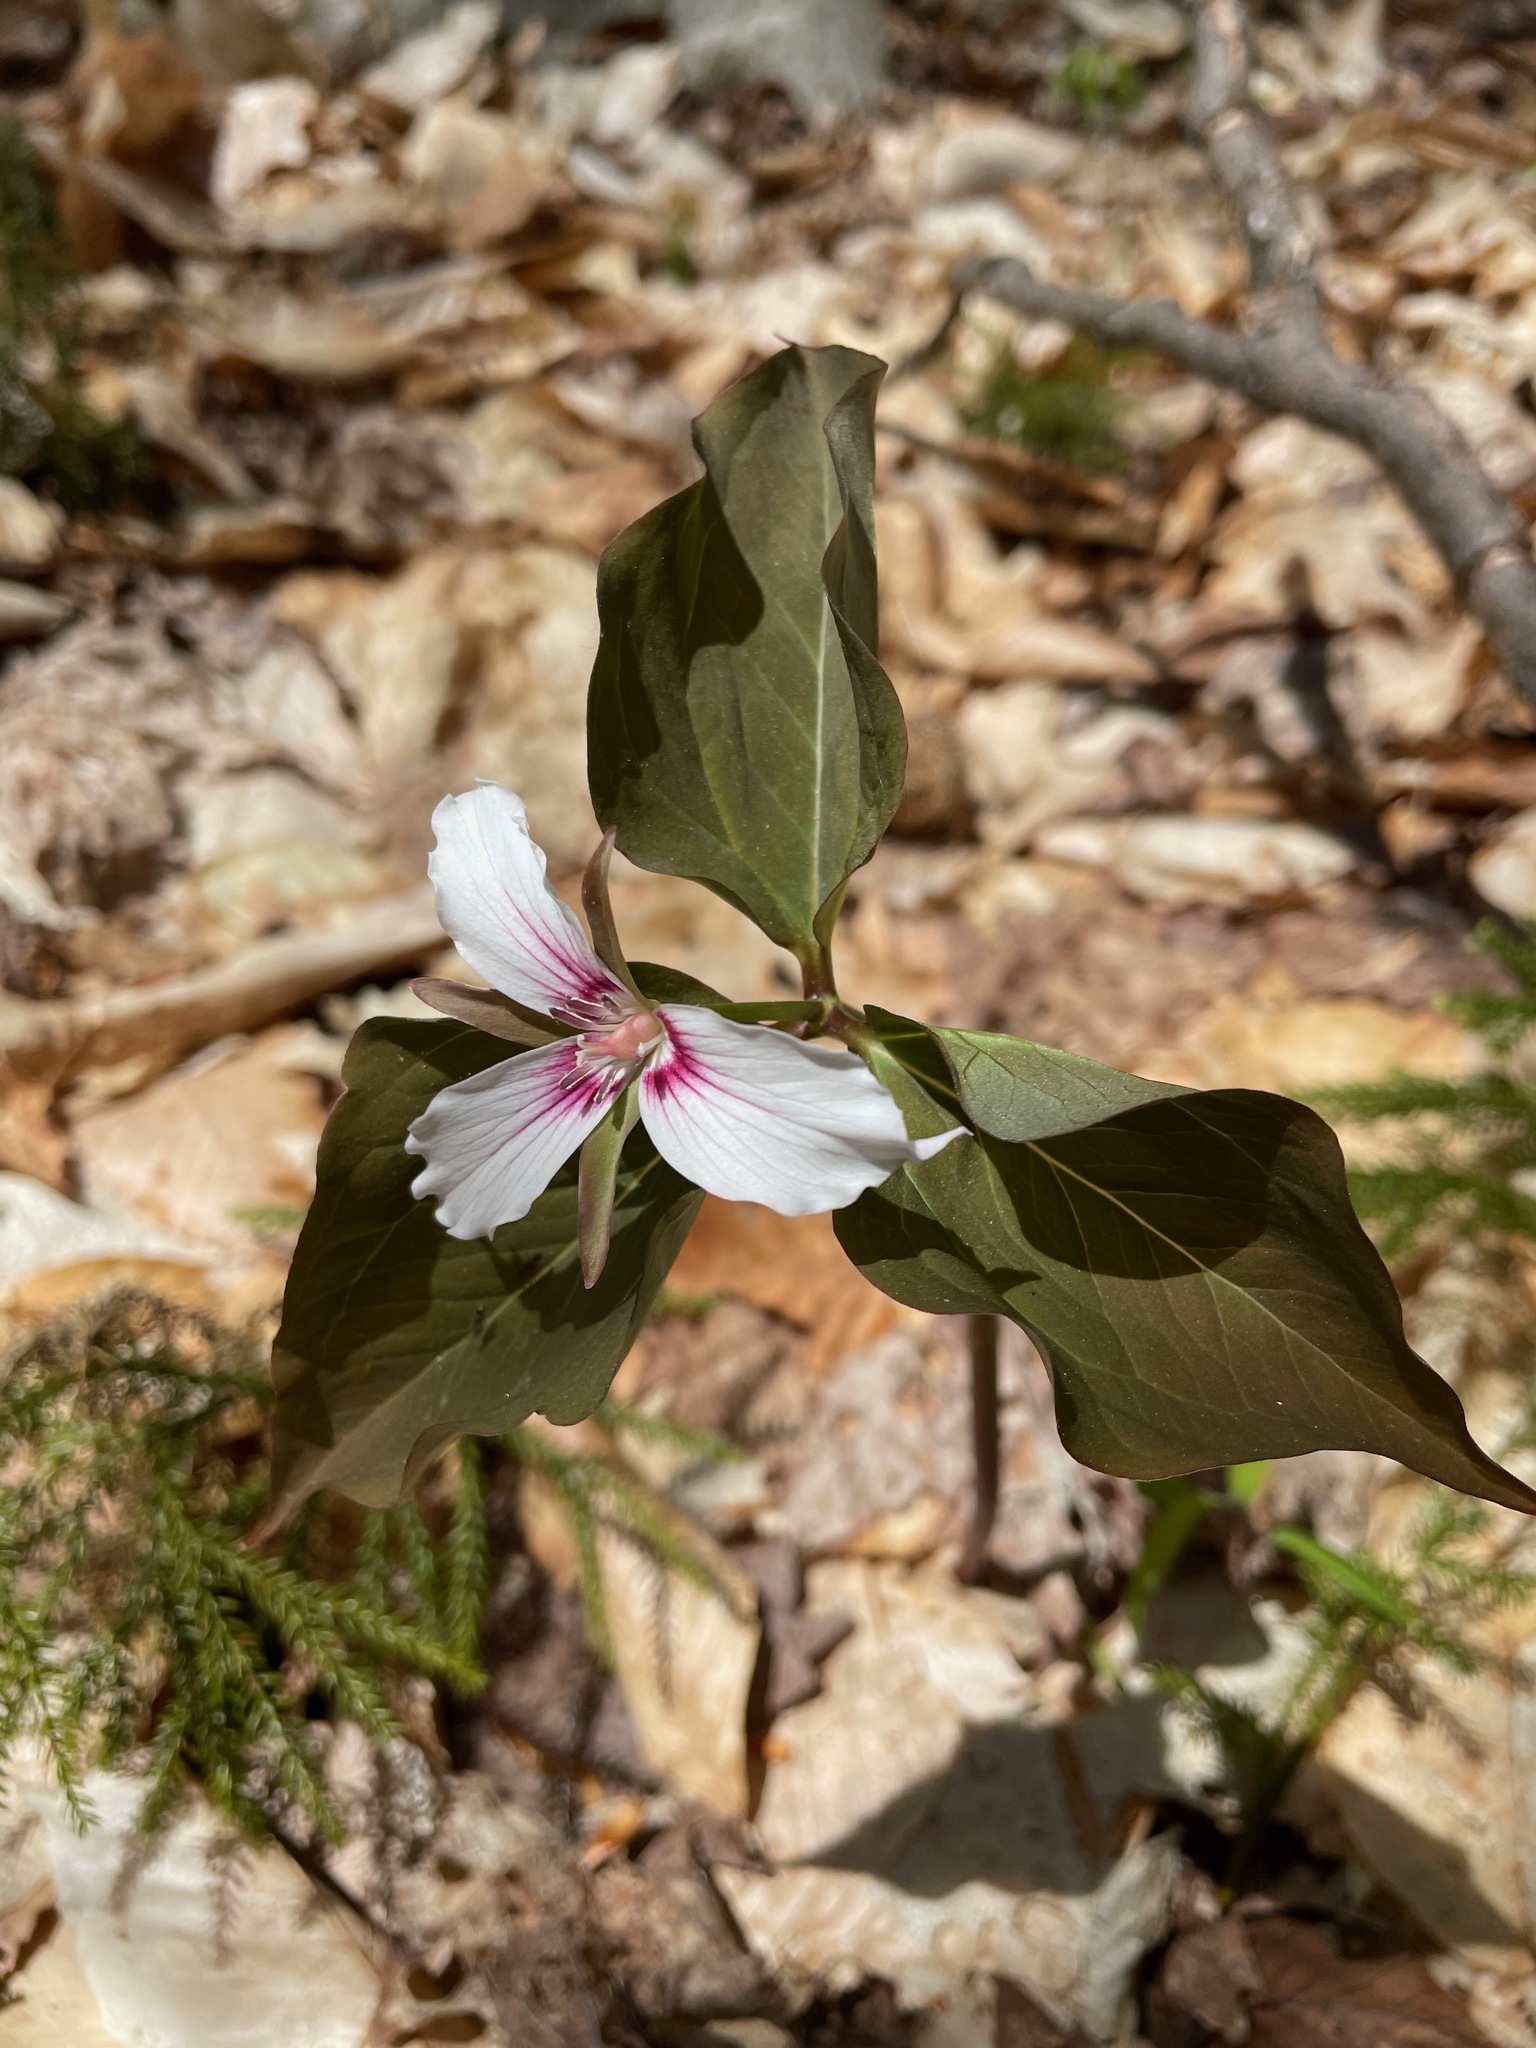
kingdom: Plantae
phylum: Tracheophyta
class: Liliopsida
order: Liliales
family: Melanthiaceae
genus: Trillium
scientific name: Trillium undulatum
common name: Paint trillium
